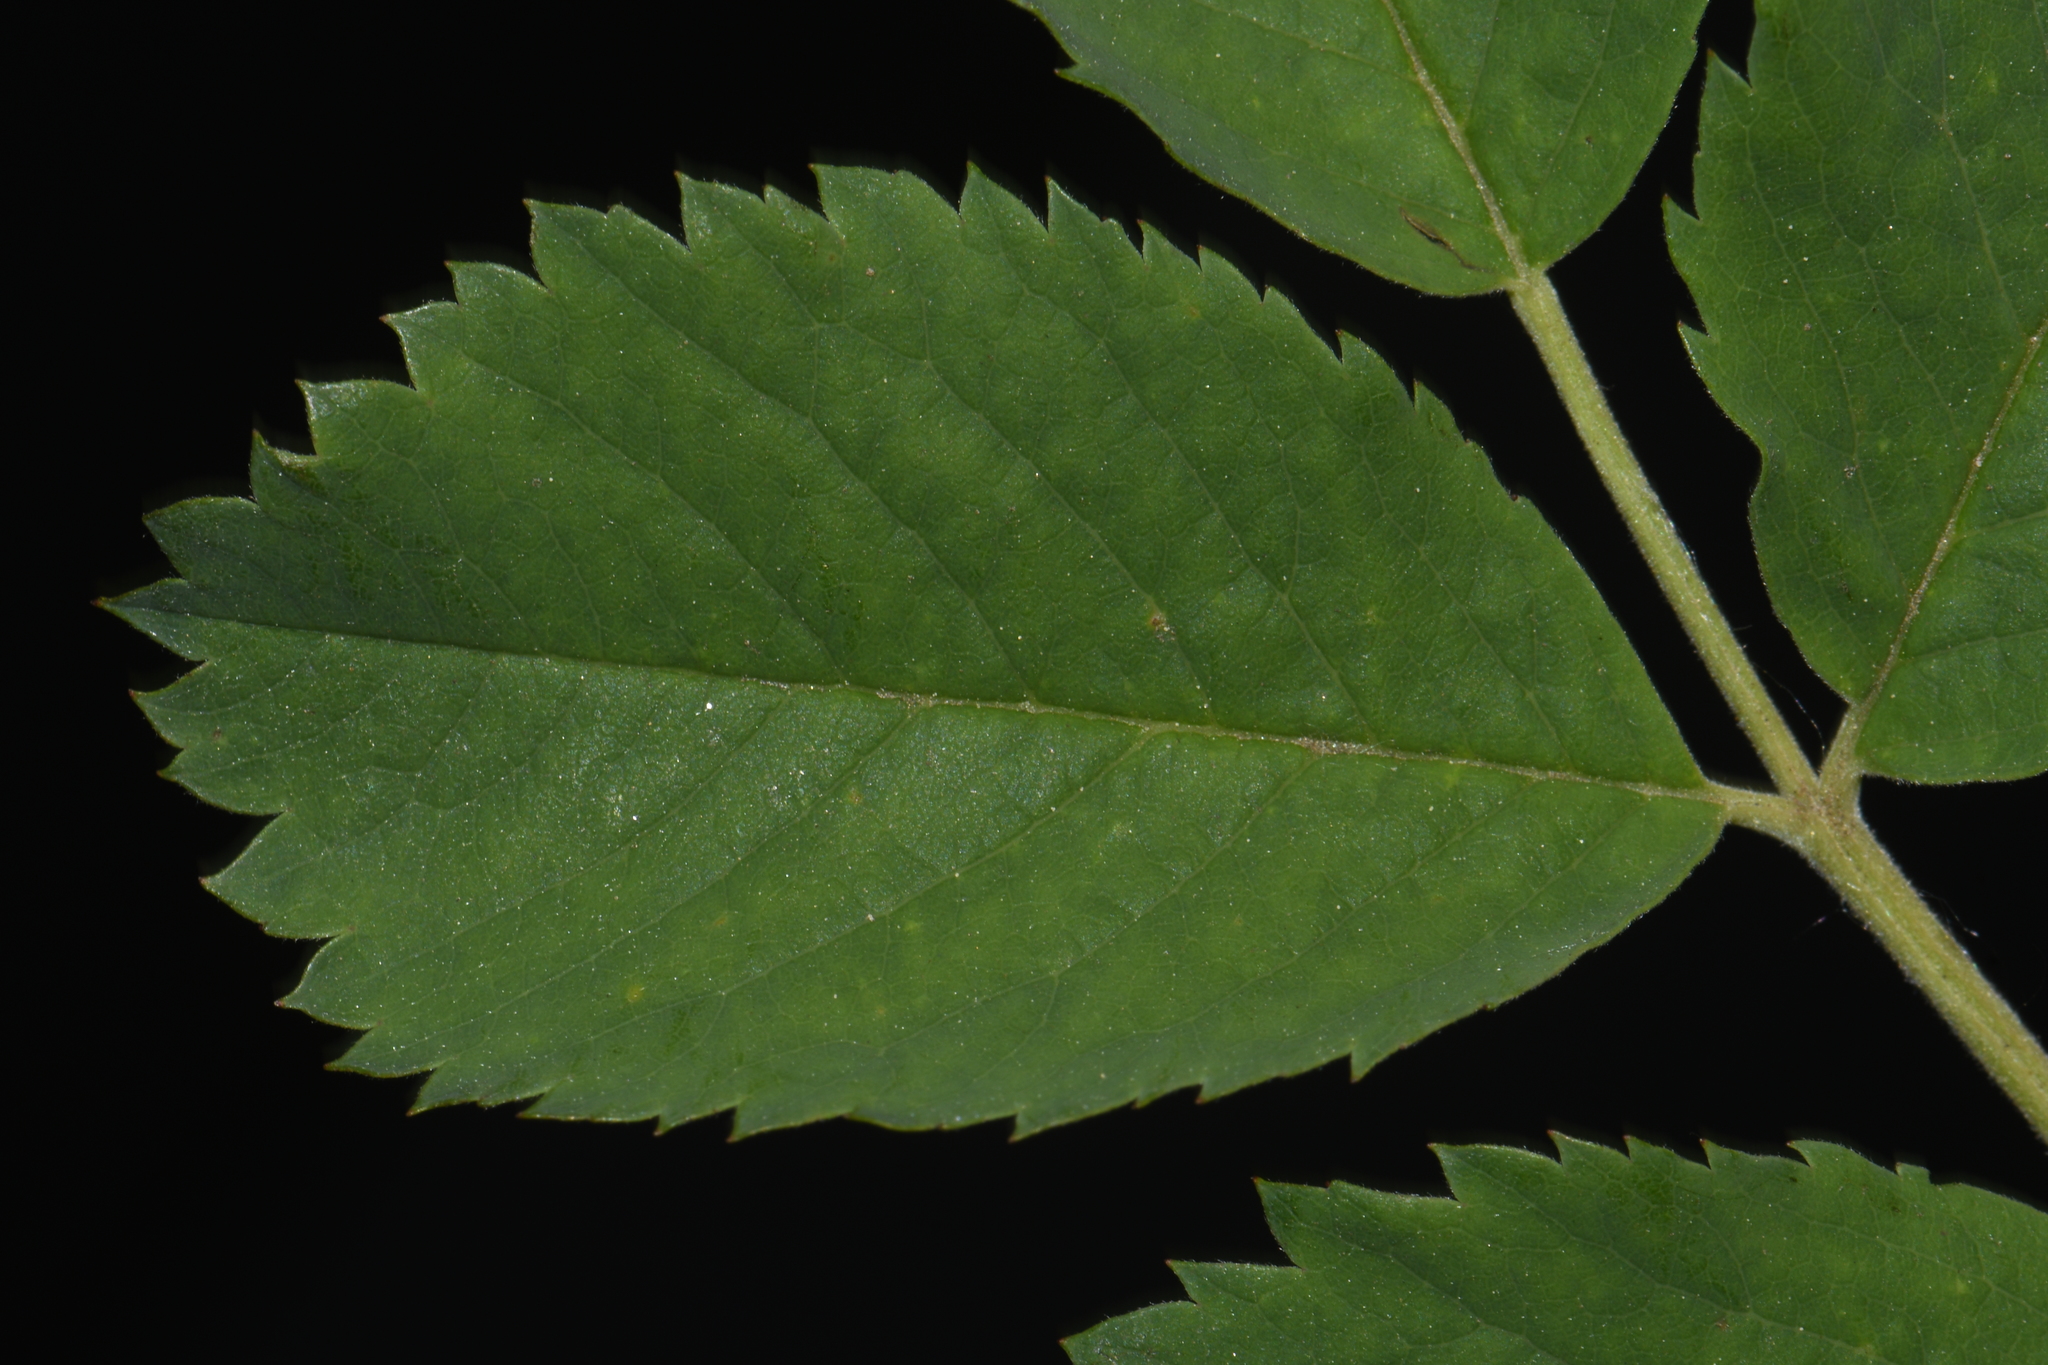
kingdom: Plantae
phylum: Tracheophyta
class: Magnoliopsida
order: Rosales
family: Rosaceae
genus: Rosa
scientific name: Rosa woodsii
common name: Woods's rose
